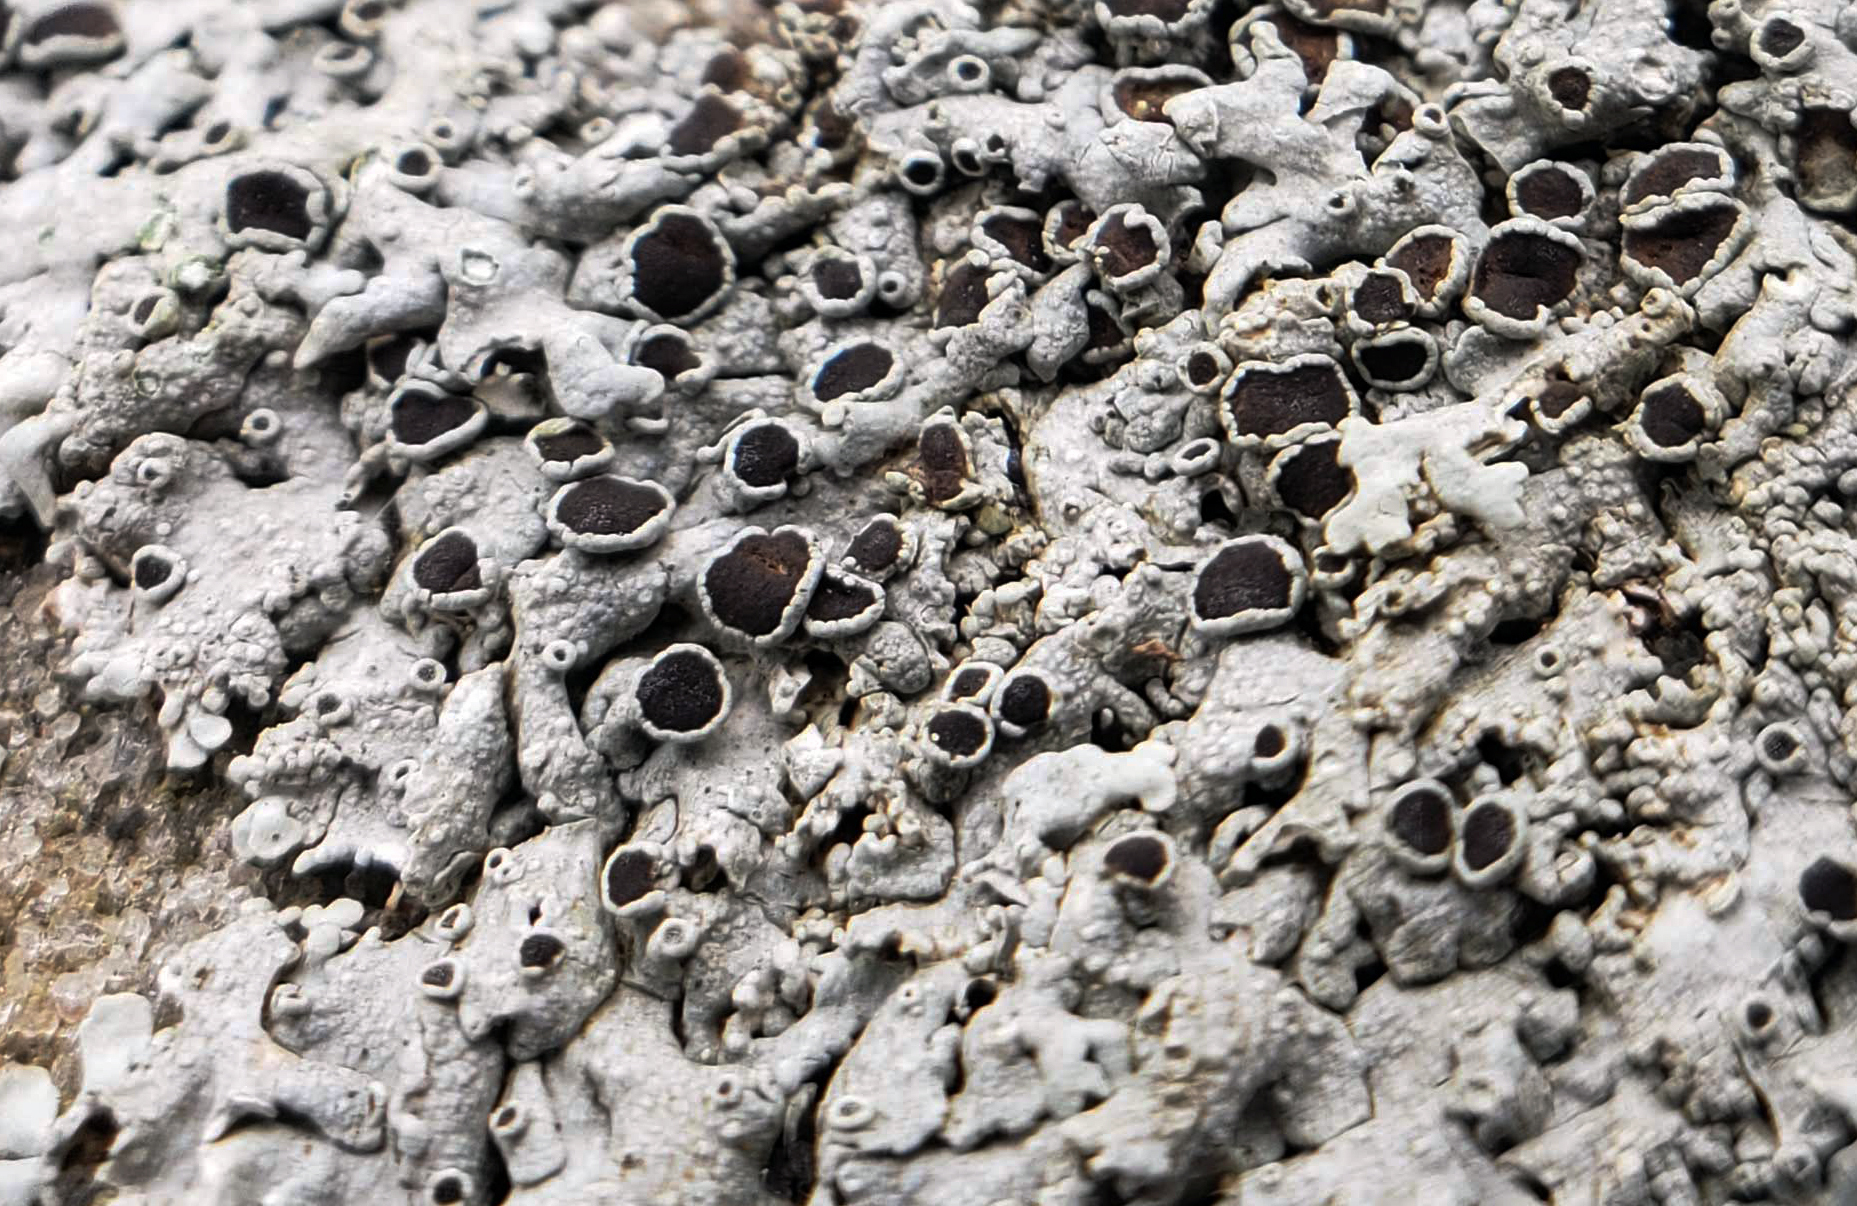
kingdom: Fungi
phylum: Ascomycota
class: Lecanoromycetes
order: Caliciales
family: Physciaceae
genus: Physcia
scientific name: Physcia phaea
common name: Black-eyed rosette lichen
